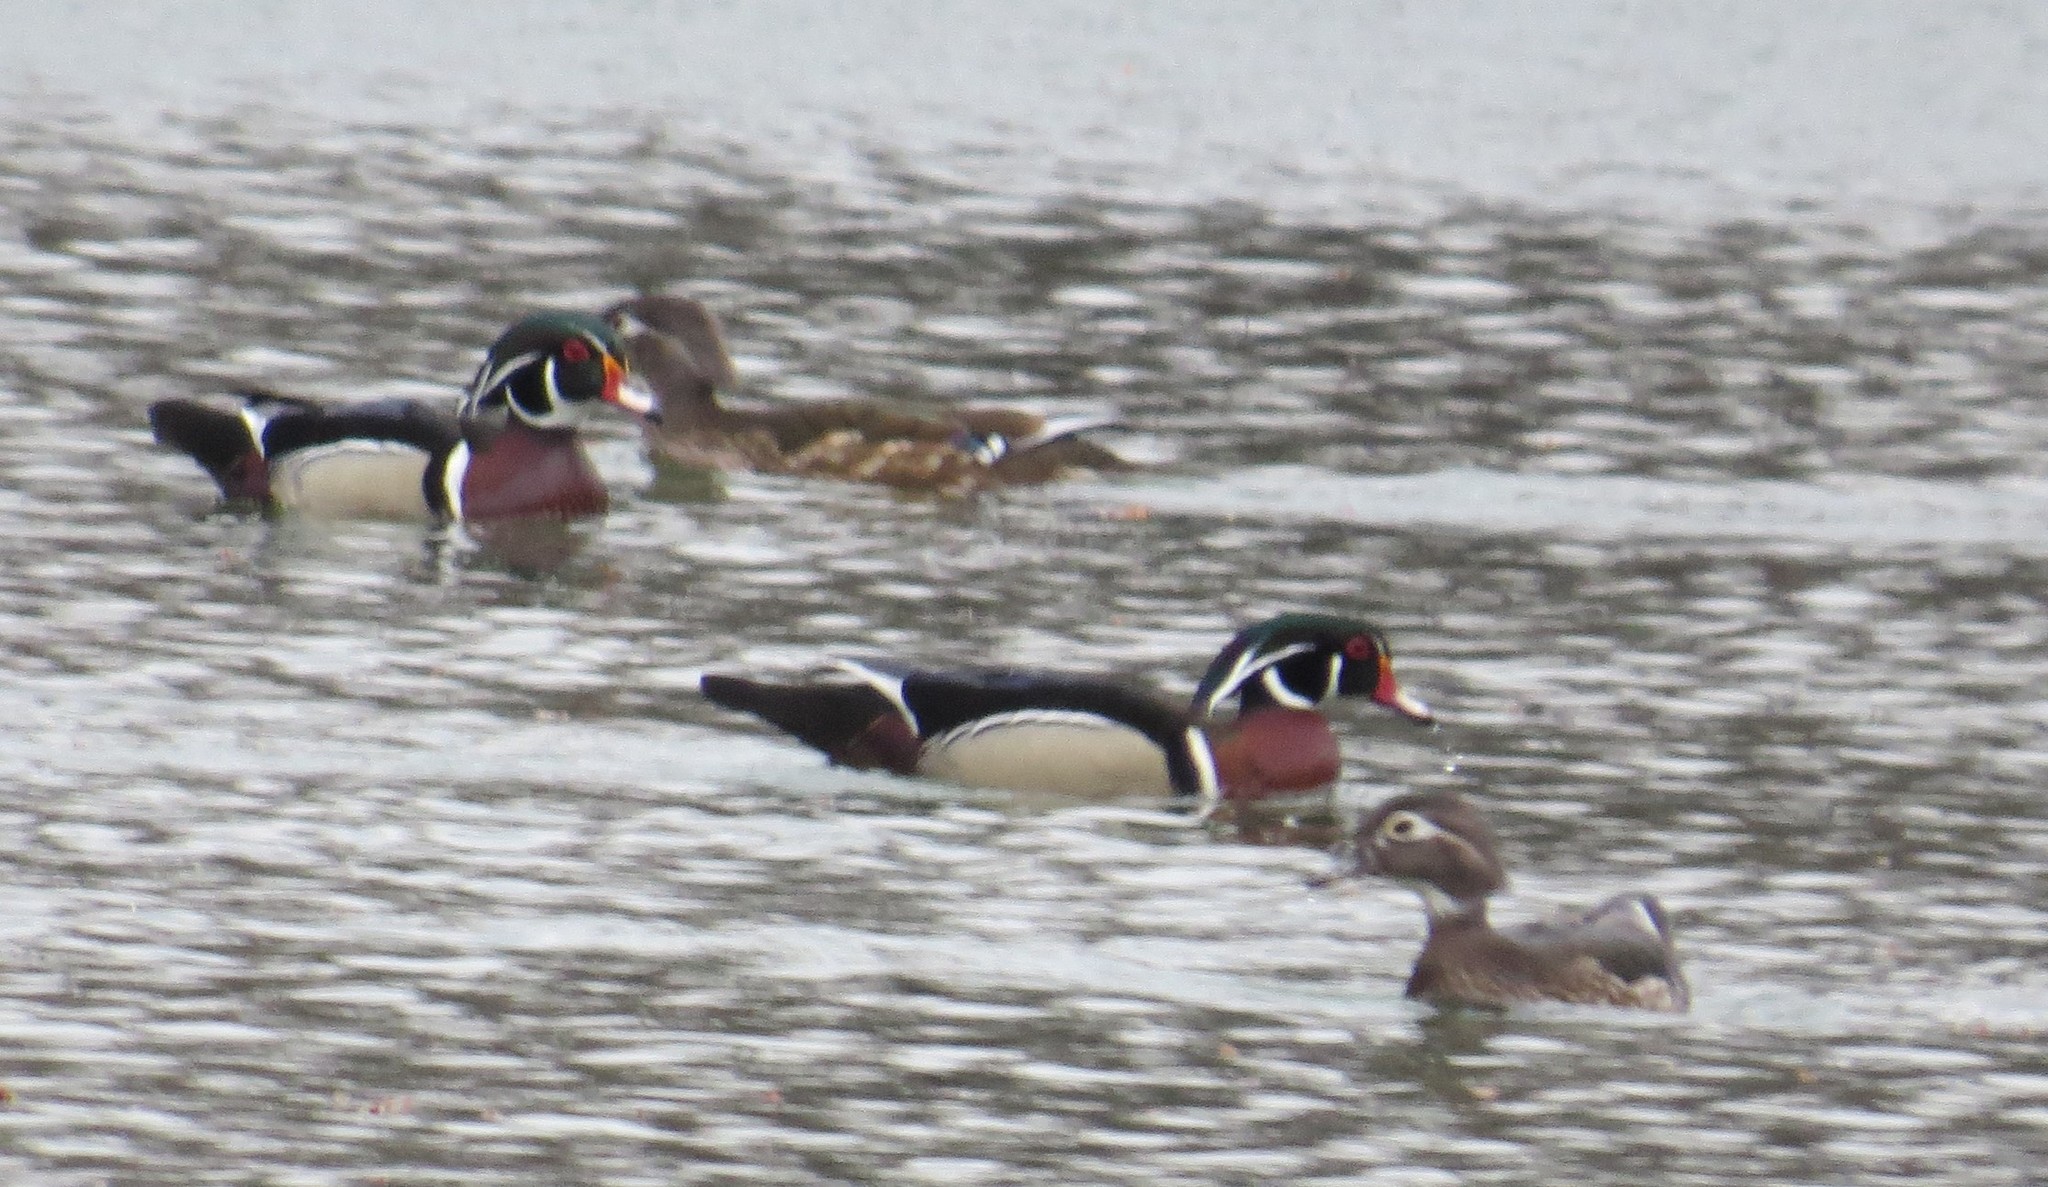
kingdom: Animalia
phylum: Chordata
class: Aves
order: Anseriformes
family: Anatidae
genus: Aix
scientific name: Aix sponsa
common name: Wood duck
